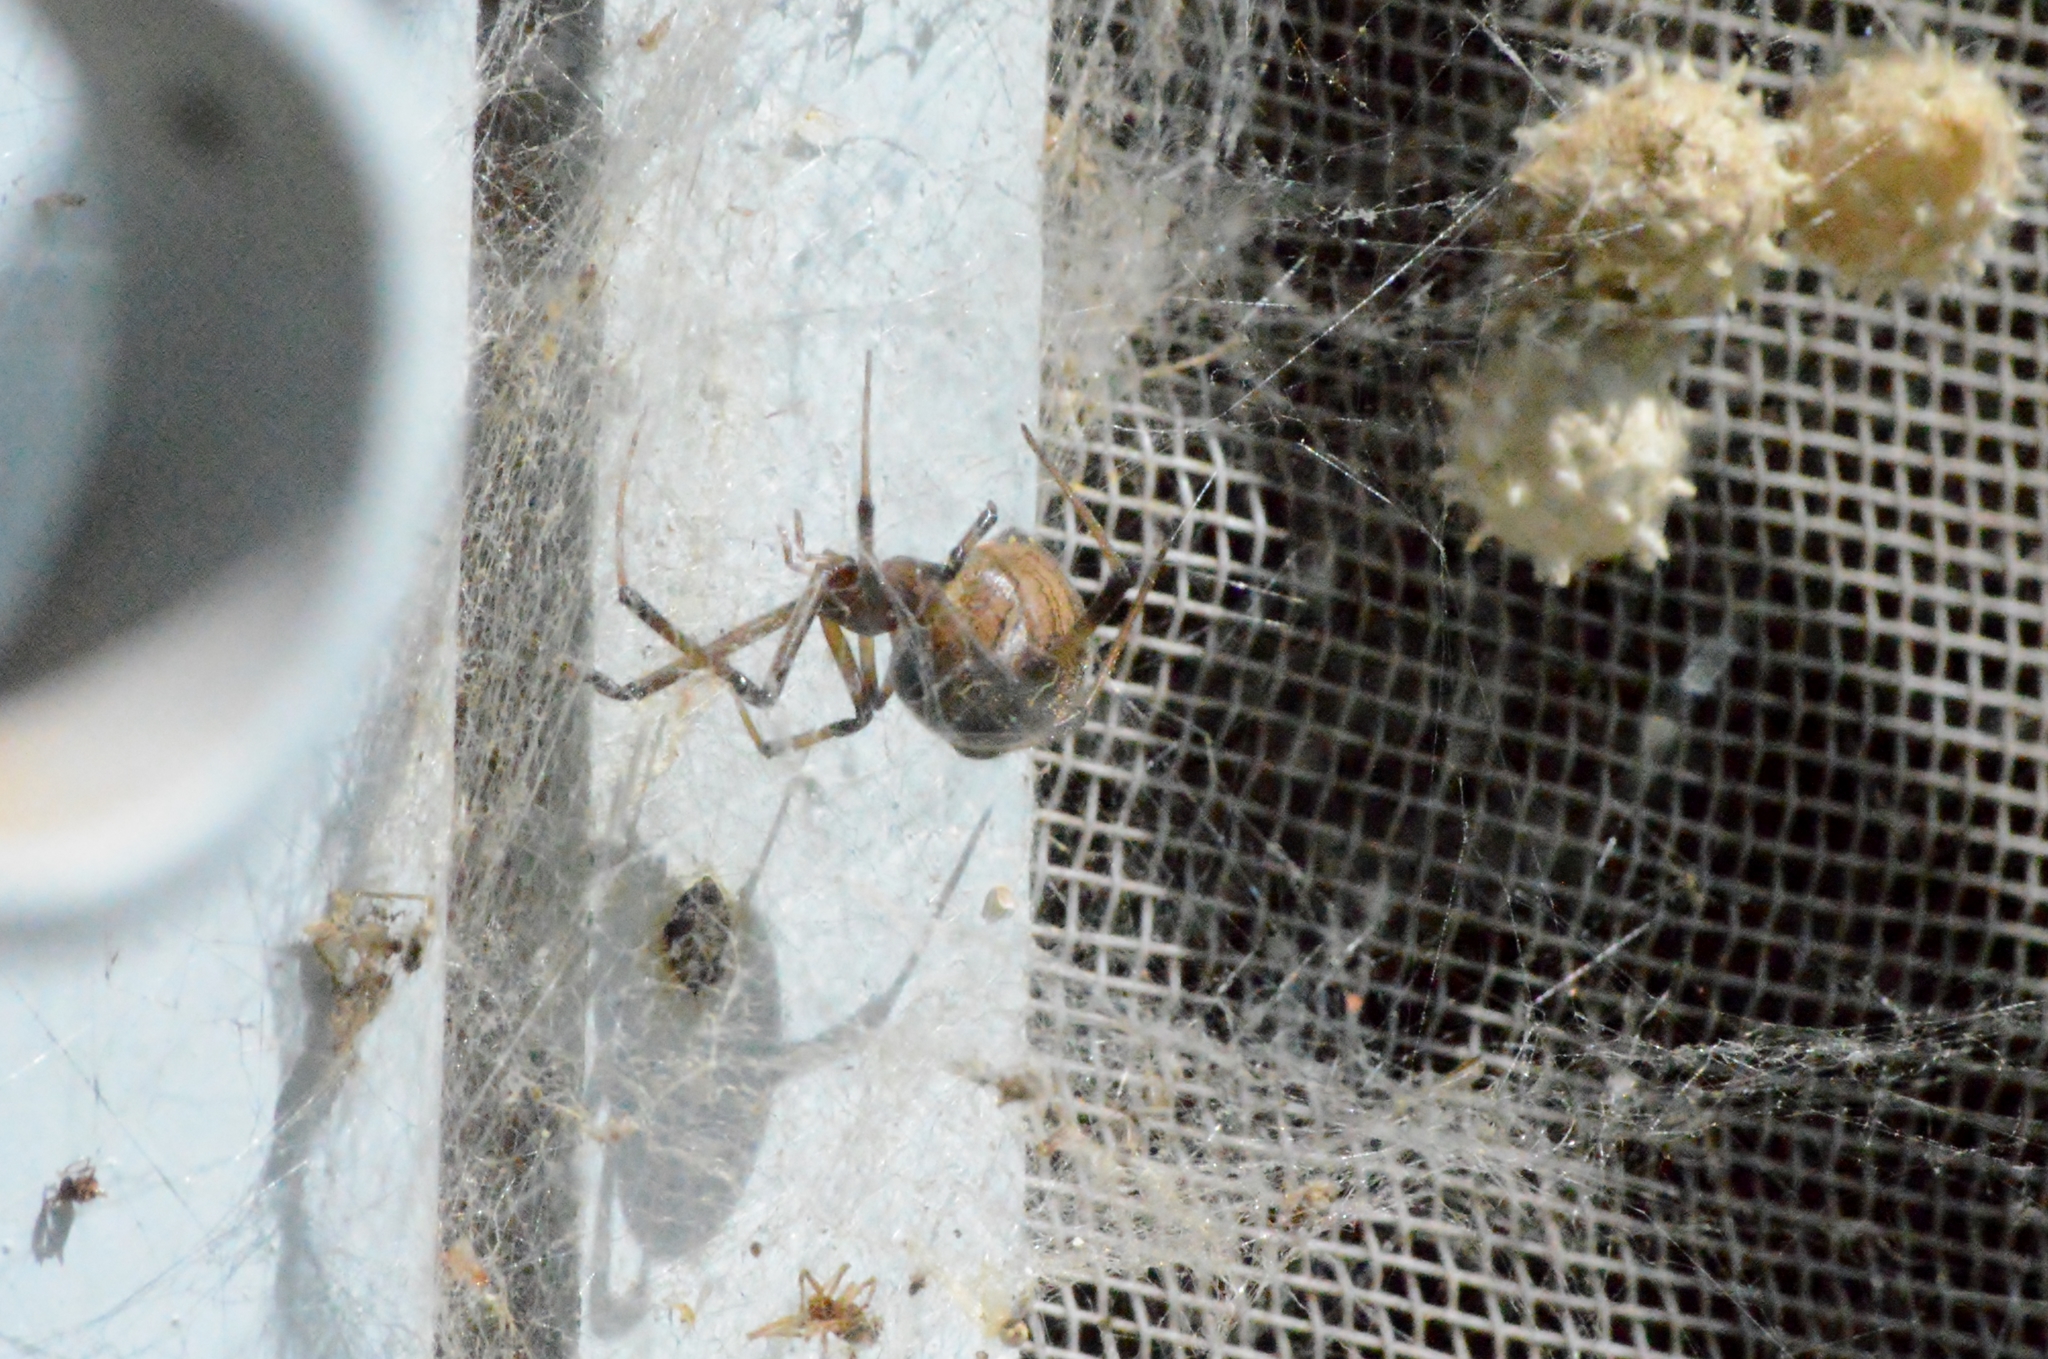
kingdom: Animalia
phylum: Arthropoda
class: Arachnida
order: Araneae
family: Theridiidae
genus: Latrodectus
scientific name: Latrodectus geometricus
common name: Brown widow spider
